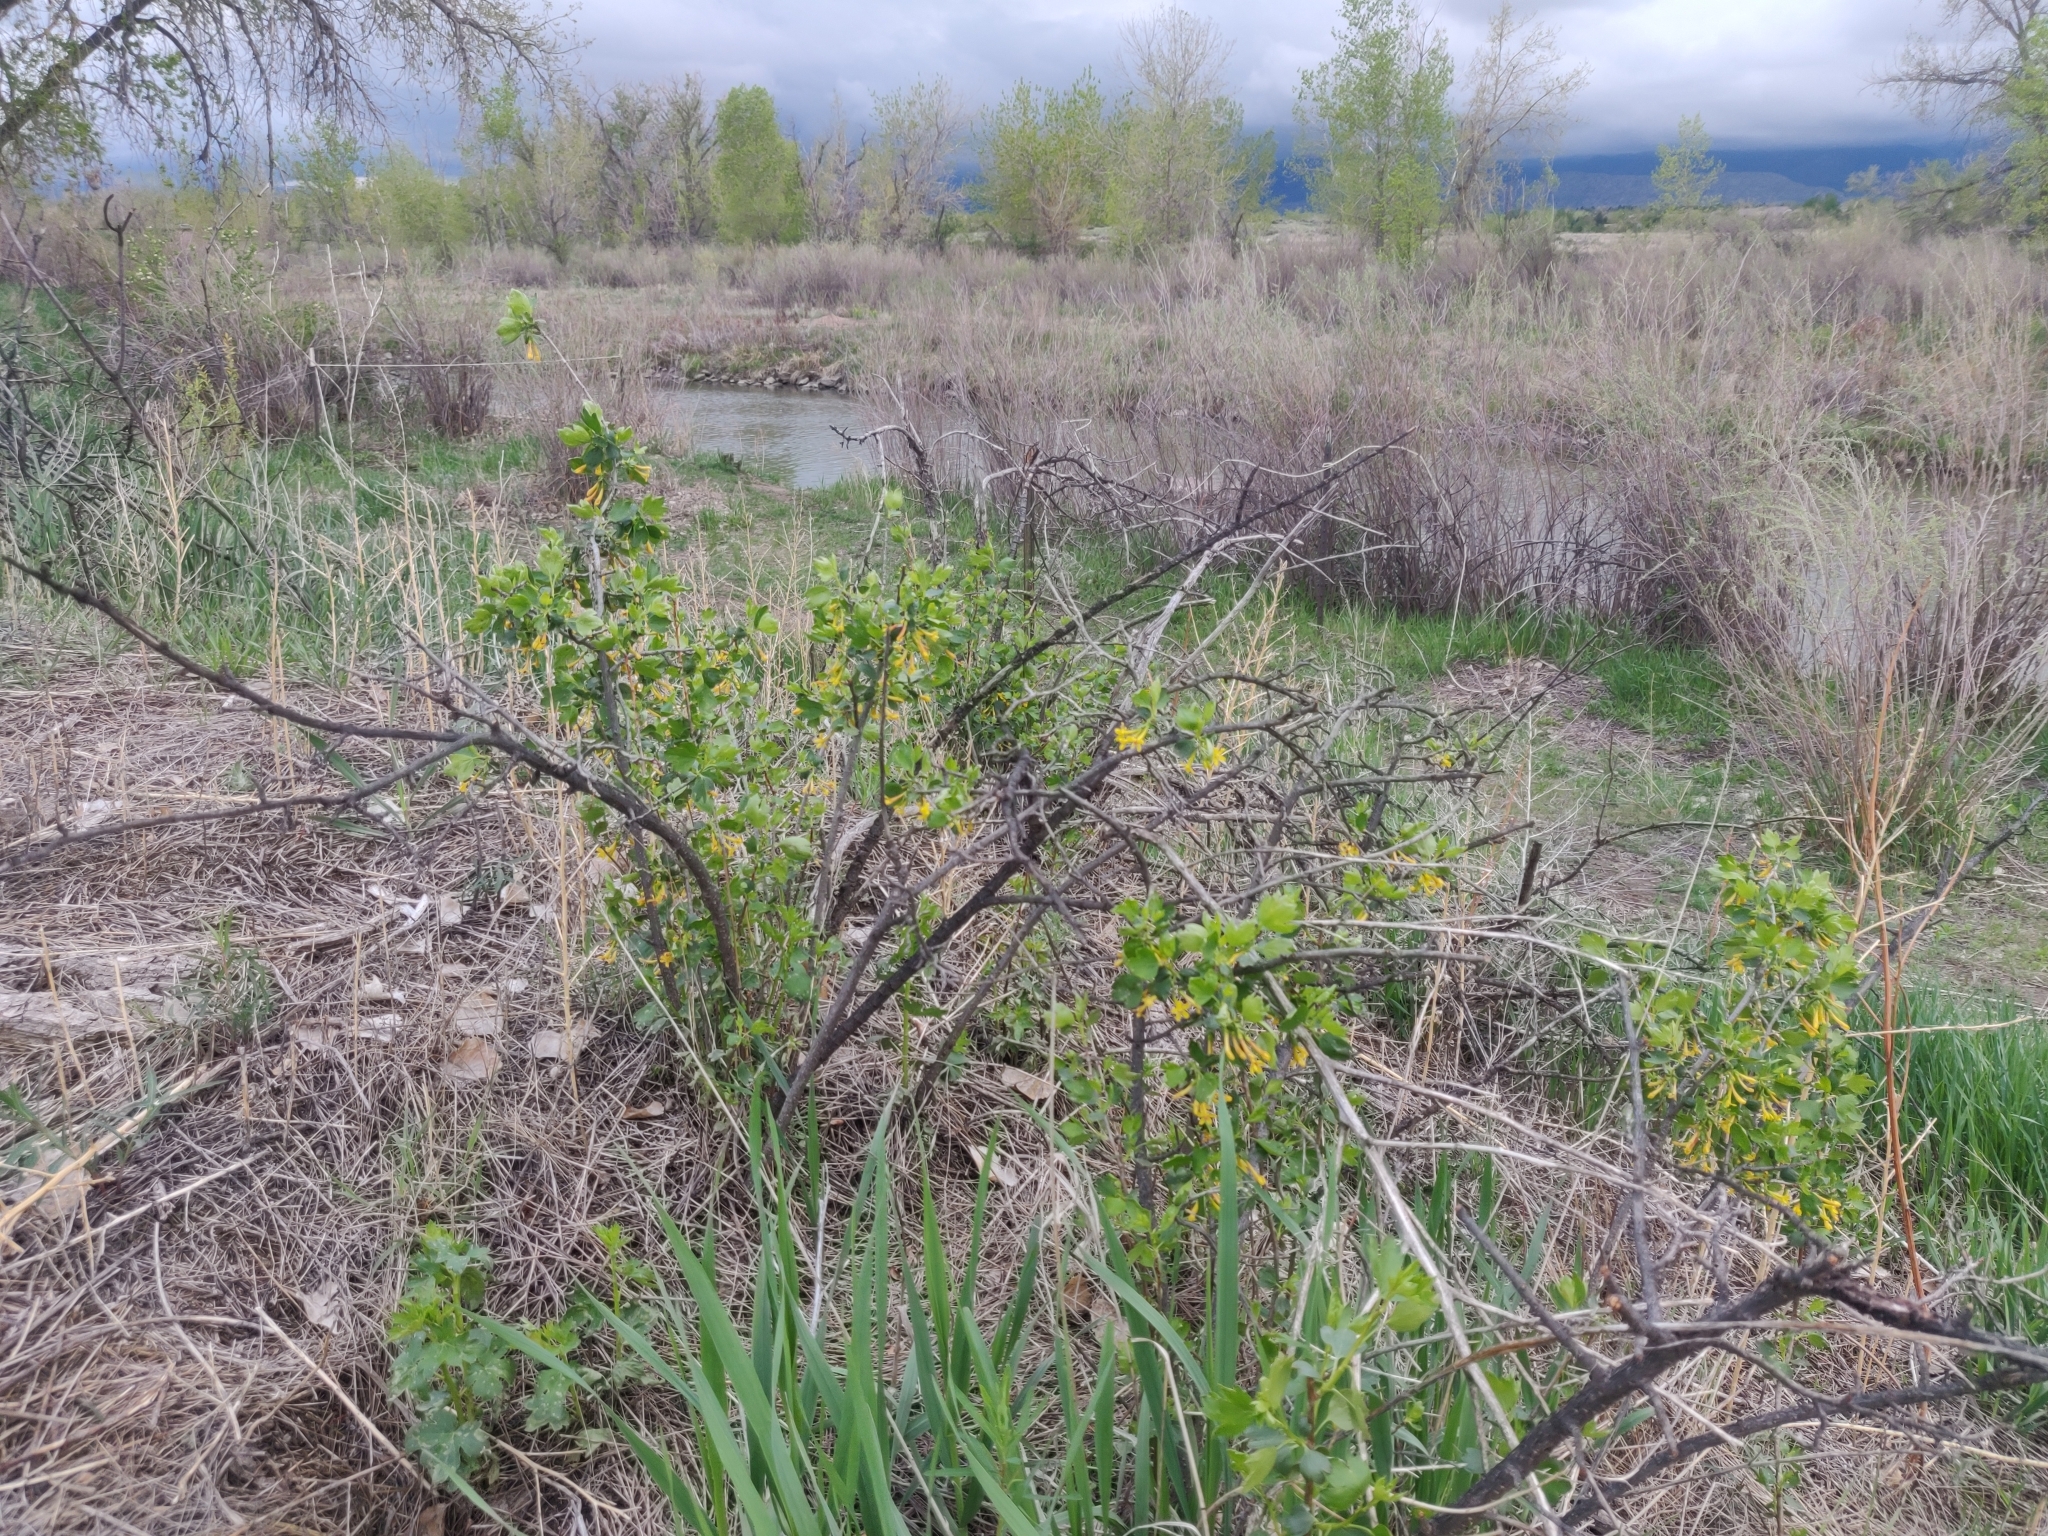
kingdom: Plantae
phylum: Tracheophyta
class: Magnoliopsida
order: Saxifragales
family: Grossulariaceae
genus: Ribes
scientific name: Ribes aureum
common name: Golden currant
